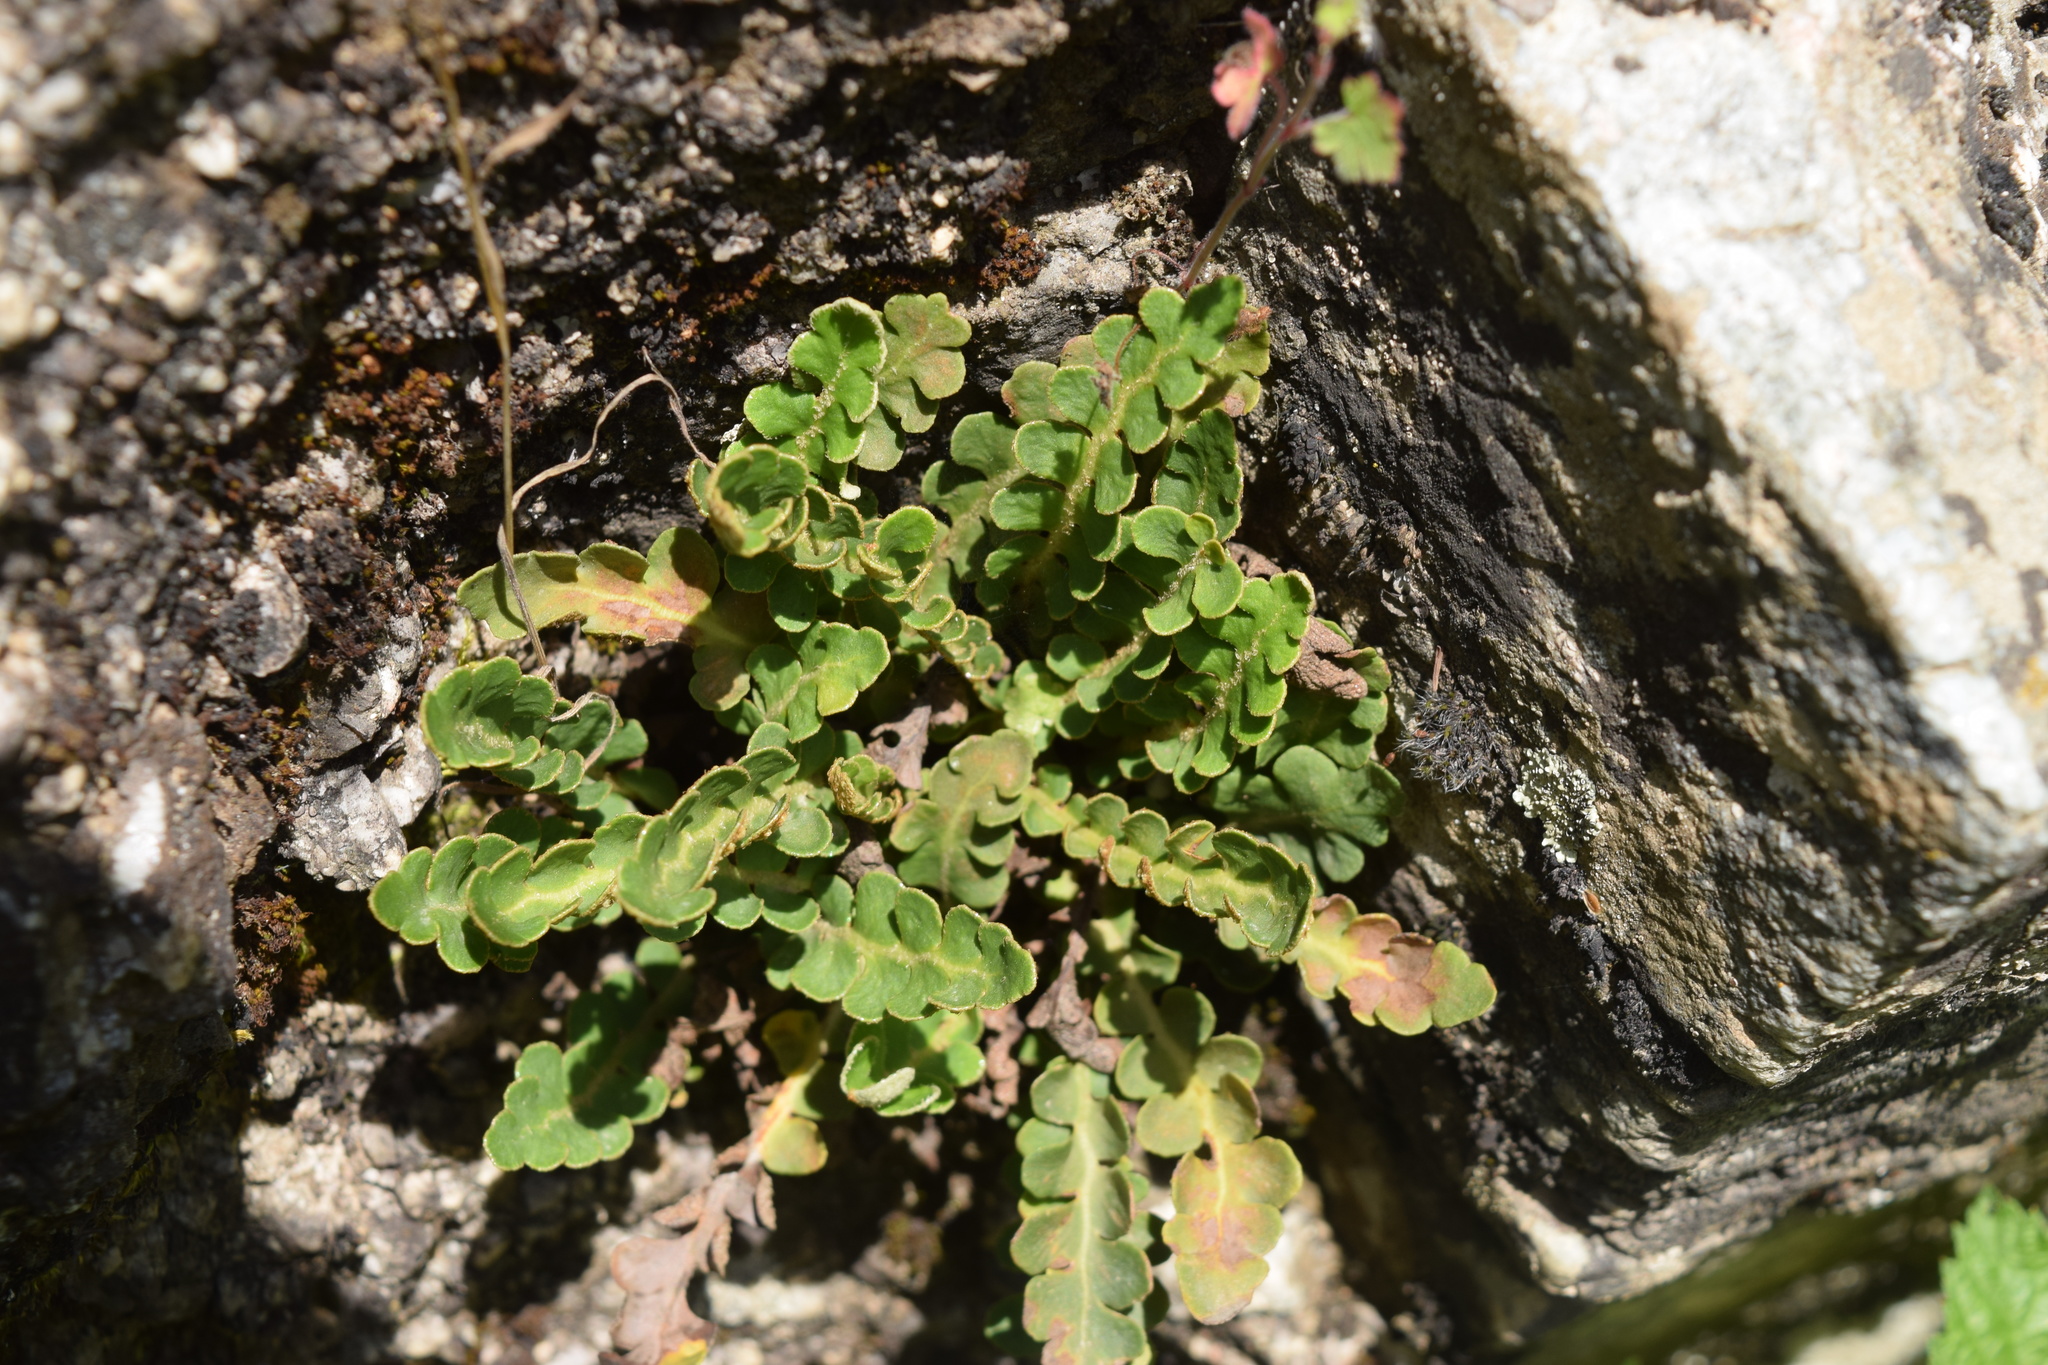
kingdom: Plantae
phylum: Tracheophyta
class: Polypodiopsida
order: Polypodiales
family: Aspleniaceae
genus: Asplenium
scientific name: Asplenium ceterach
